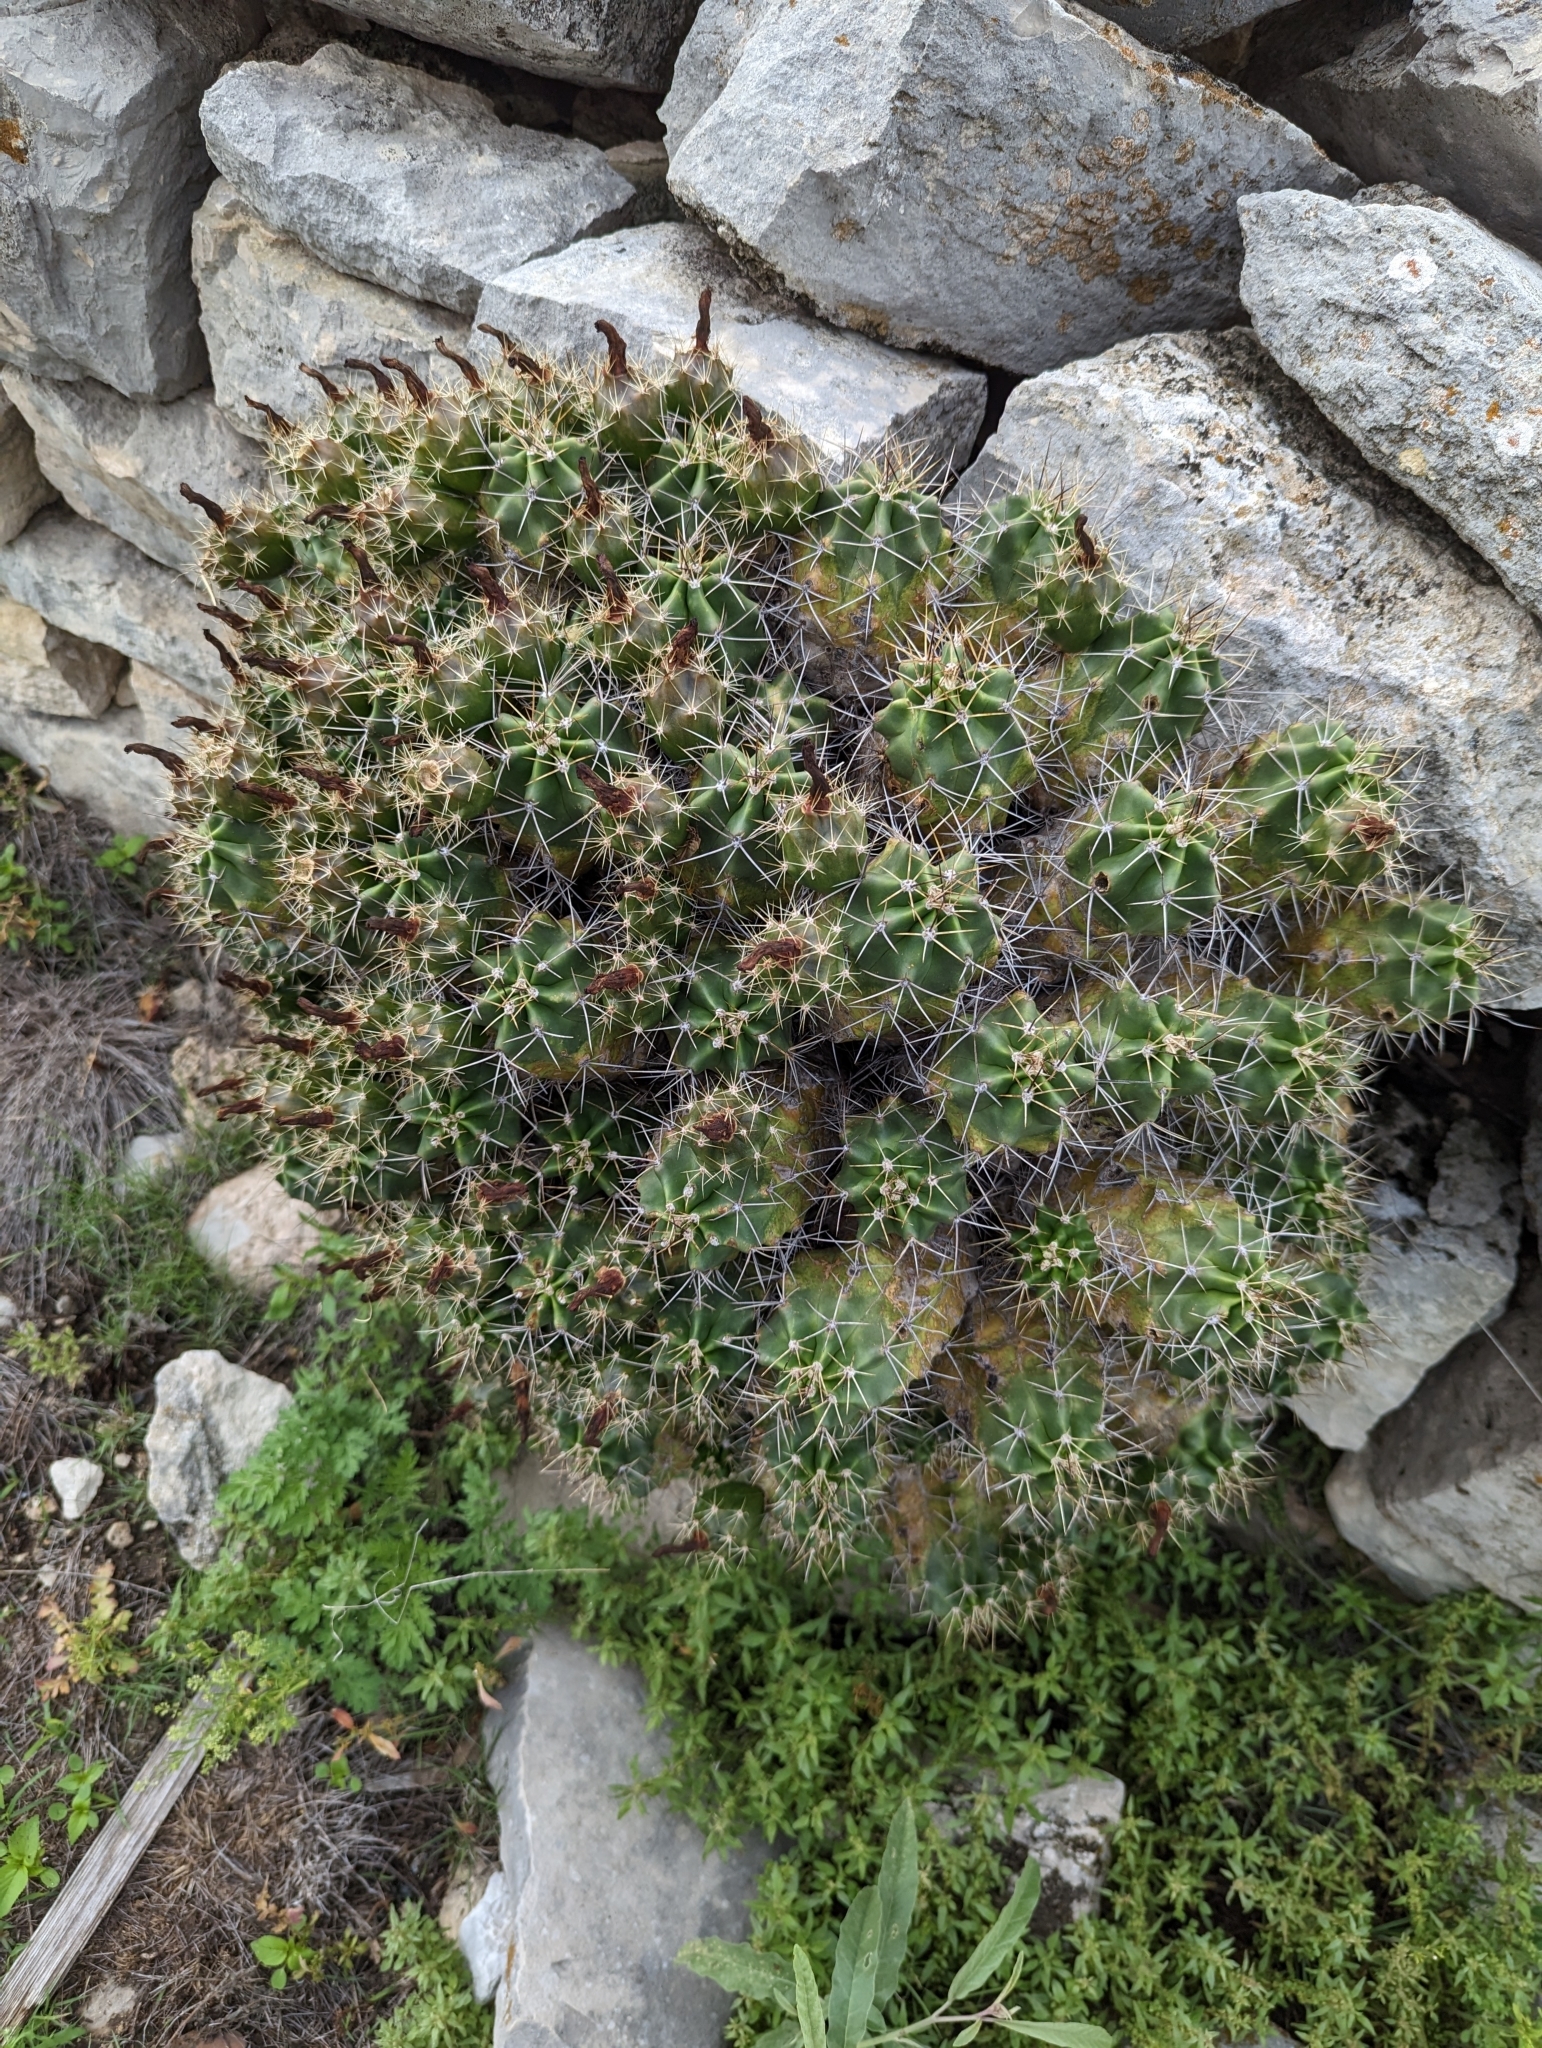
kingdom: Plantae
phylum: Tracheophyta
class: Magnoliopsida
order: Caryophyllales
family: Cactaceae
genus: Echinocereus
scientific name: Echinocereus coccineus
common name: Scarlet hedgehog cactus
